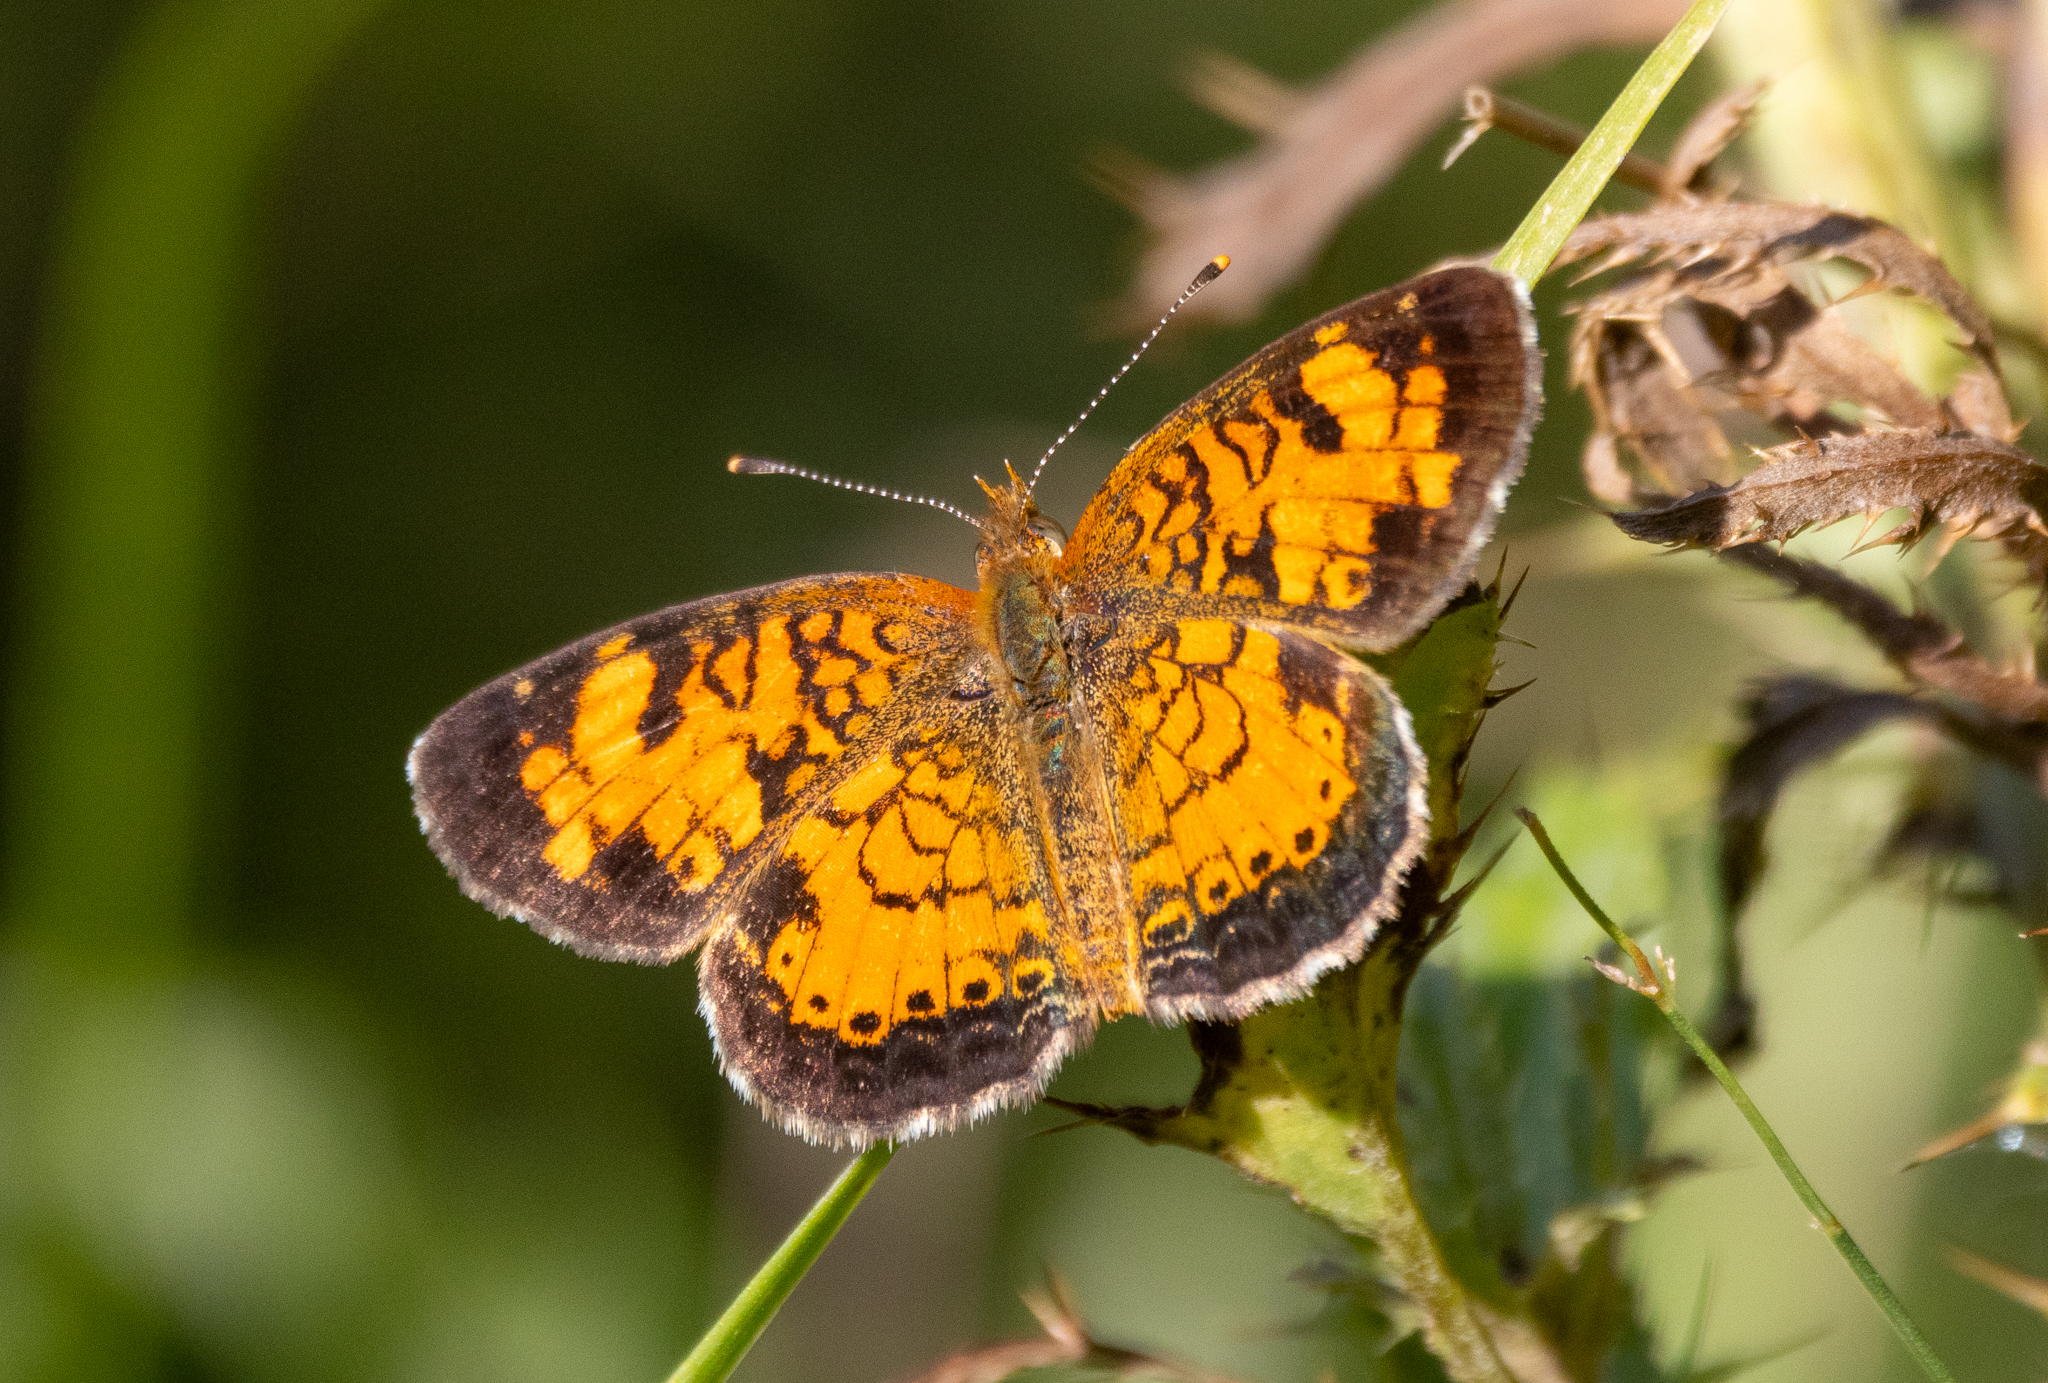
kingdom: Animalia
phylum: Arthropoda
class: Insecta
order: Lepidoptera
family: Nymphalidae
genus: Phyciodes
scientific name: Phyciodes tharos
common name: Pearl crescent
